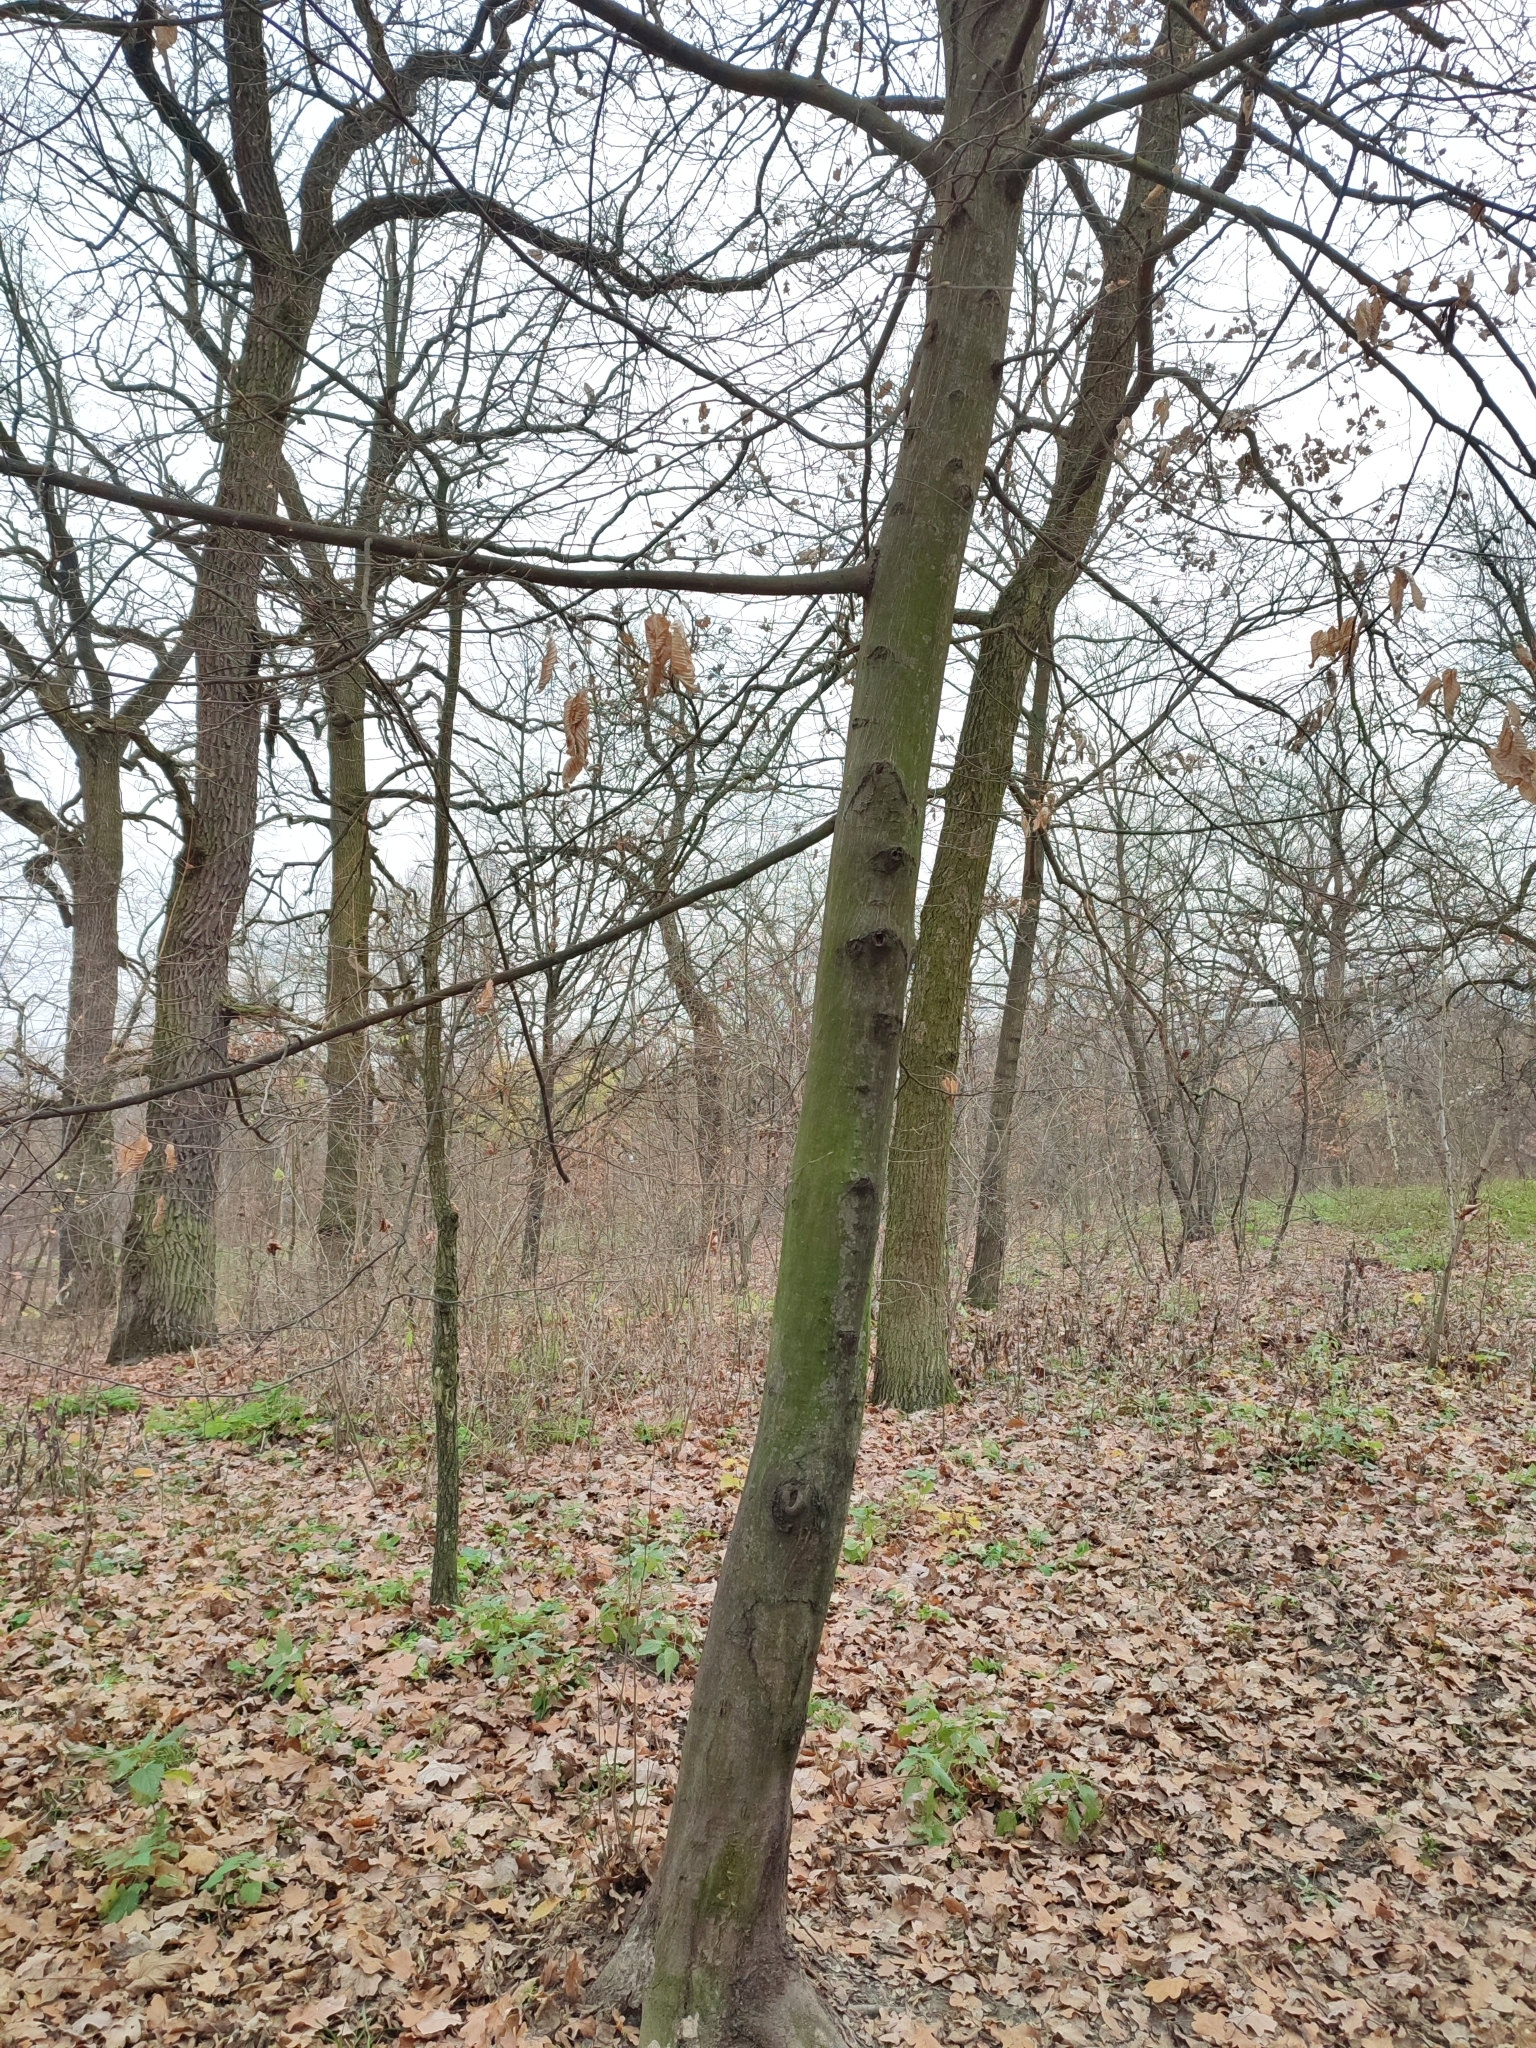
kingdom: Plantae
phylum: Tracheophyta
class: Magnoliopsida
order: Fagales
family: Betulaceae
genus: Carpinus
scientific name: Carpinus betulus
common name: Hornbeam
